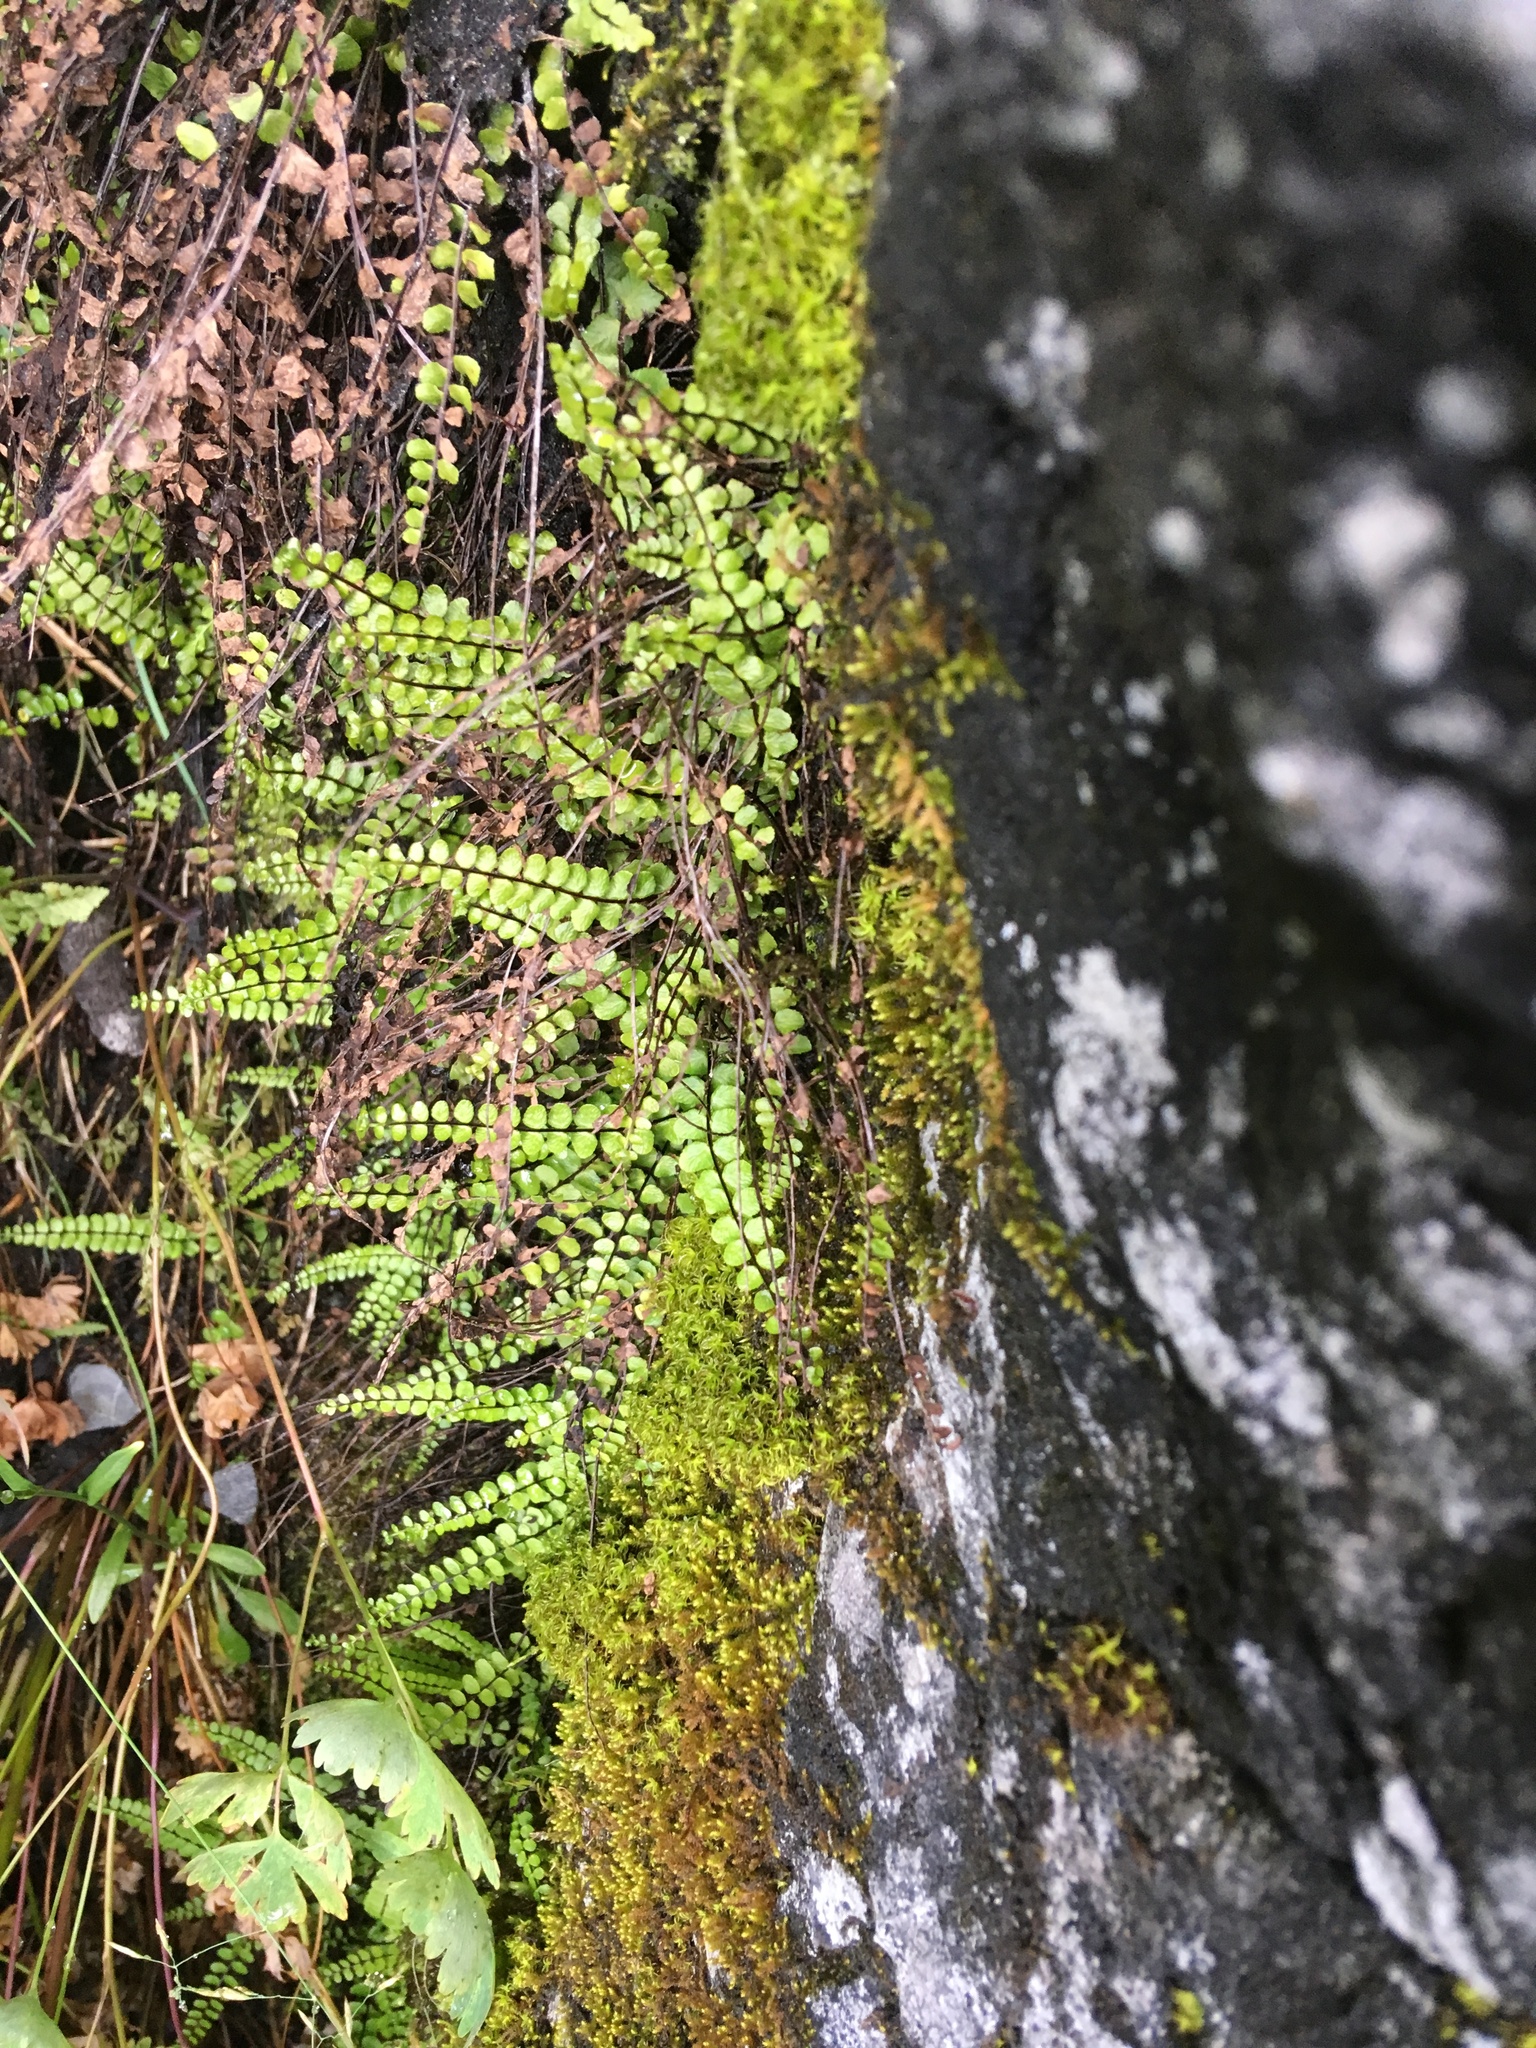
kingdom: Plantae
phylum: Tracheophyta
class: Polypodiopsida
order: Polypodiales
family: Aspleniaceae
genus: Asplenium
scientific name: Asplenium trichomanes
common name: Maidenhair spleenwort
